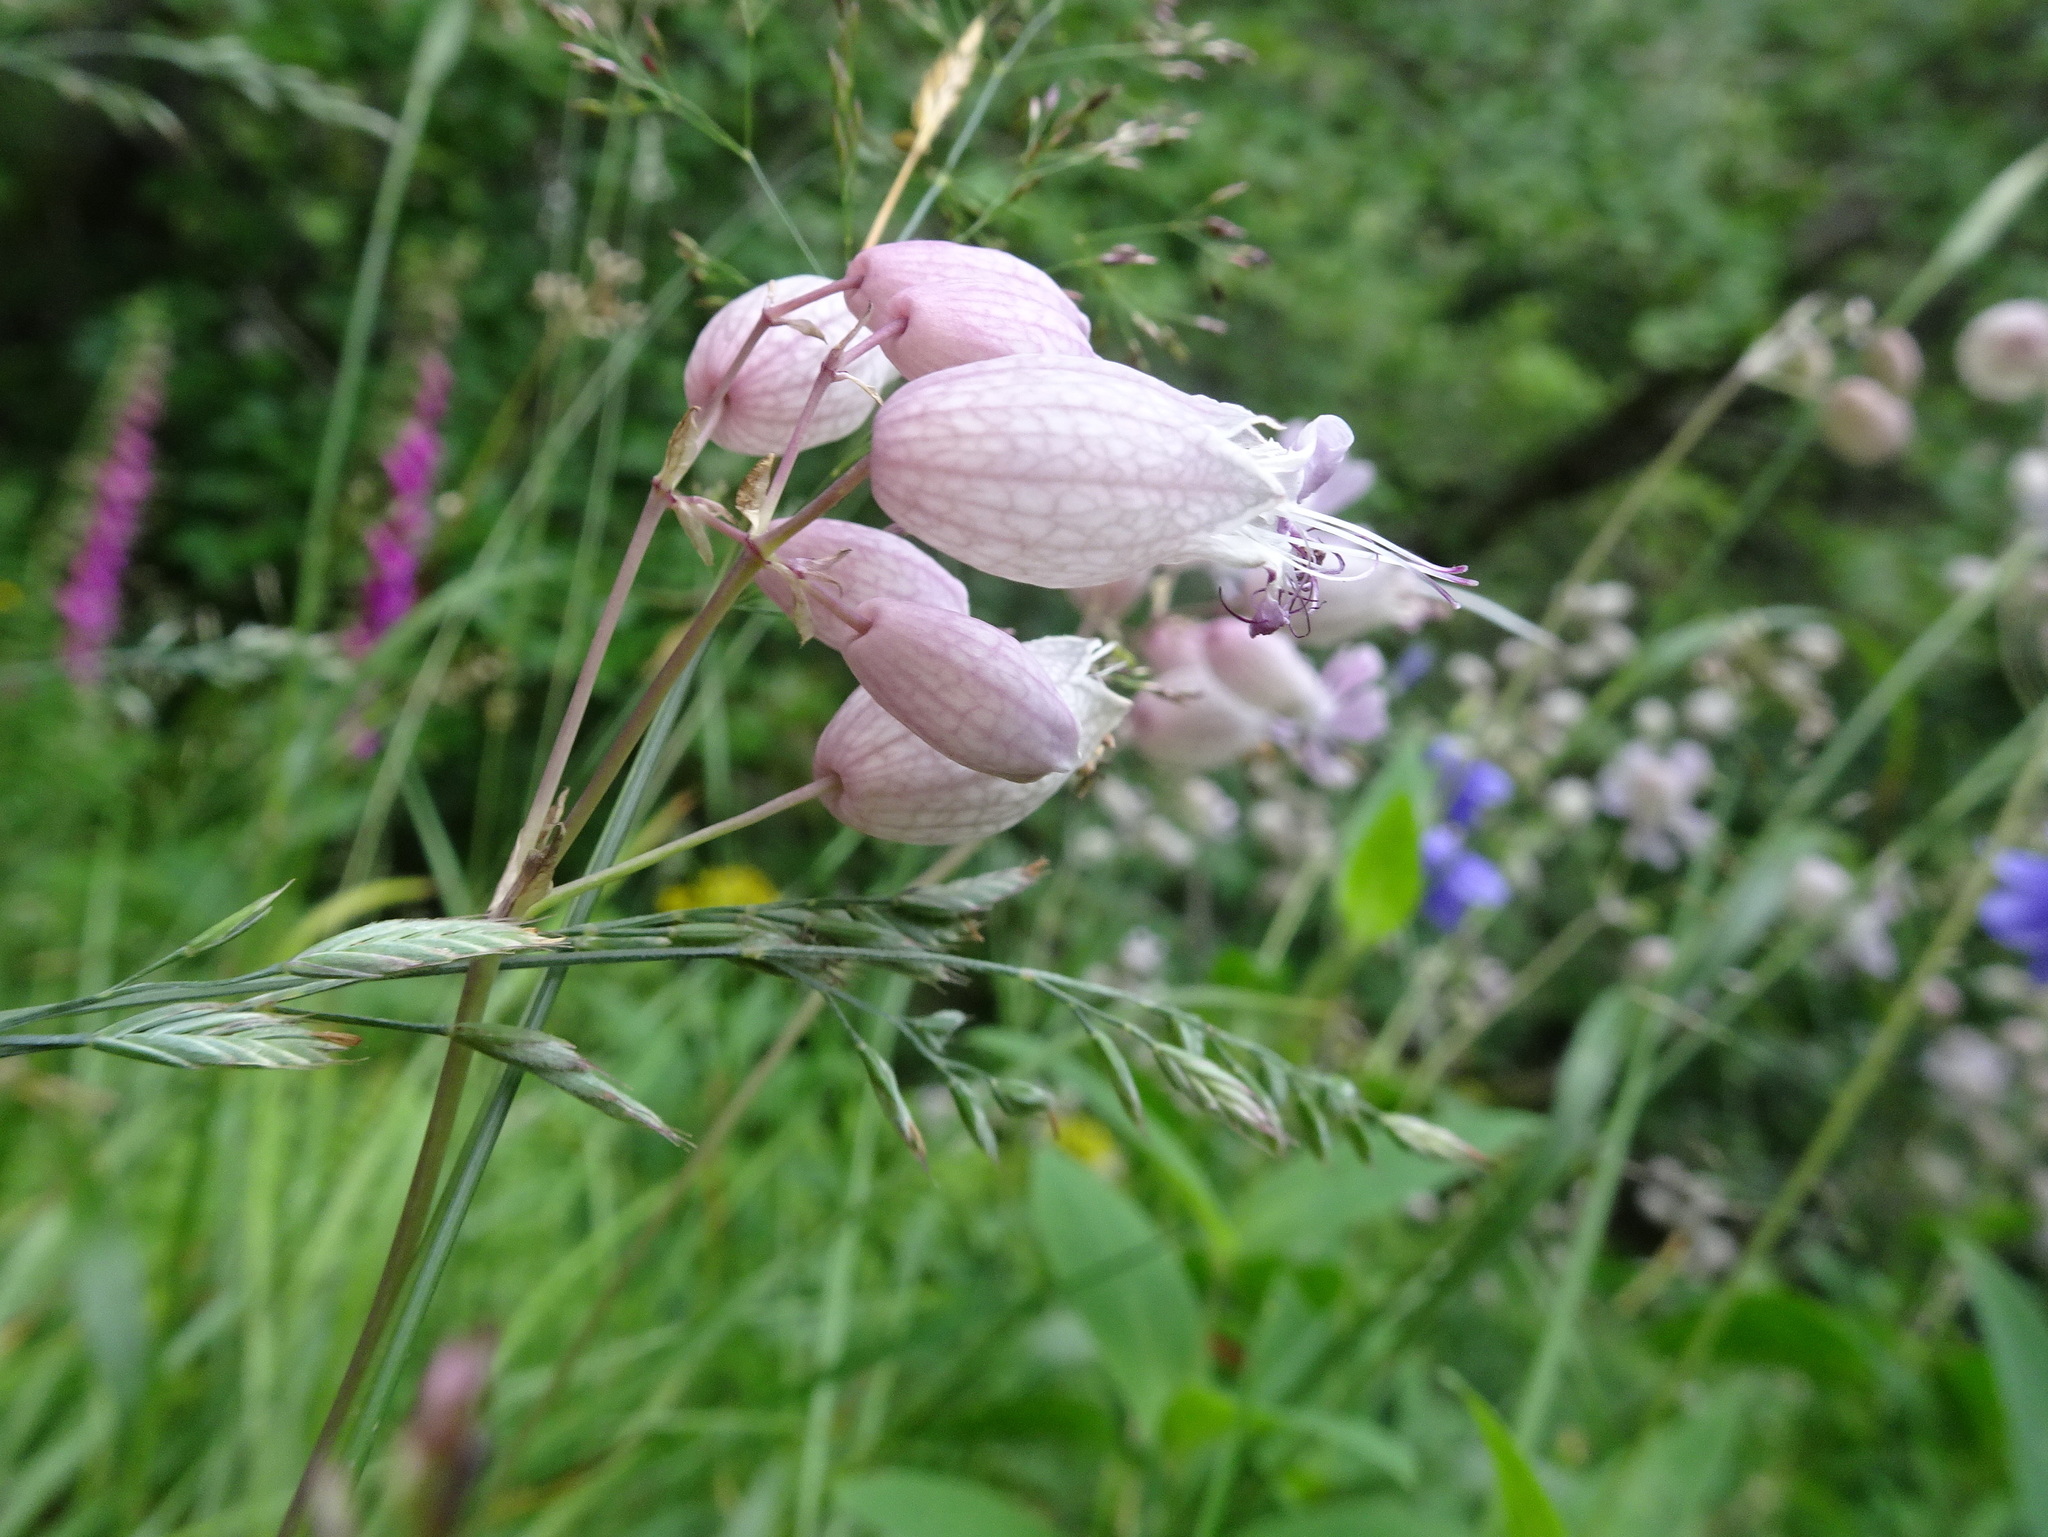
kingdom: Plantae
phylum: Tracheophyta
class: Magnoliopsida
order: Caryophyllales
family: Caryophyllaceae
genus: Silene
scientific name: Silene vulgaris
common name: Bladder campion
